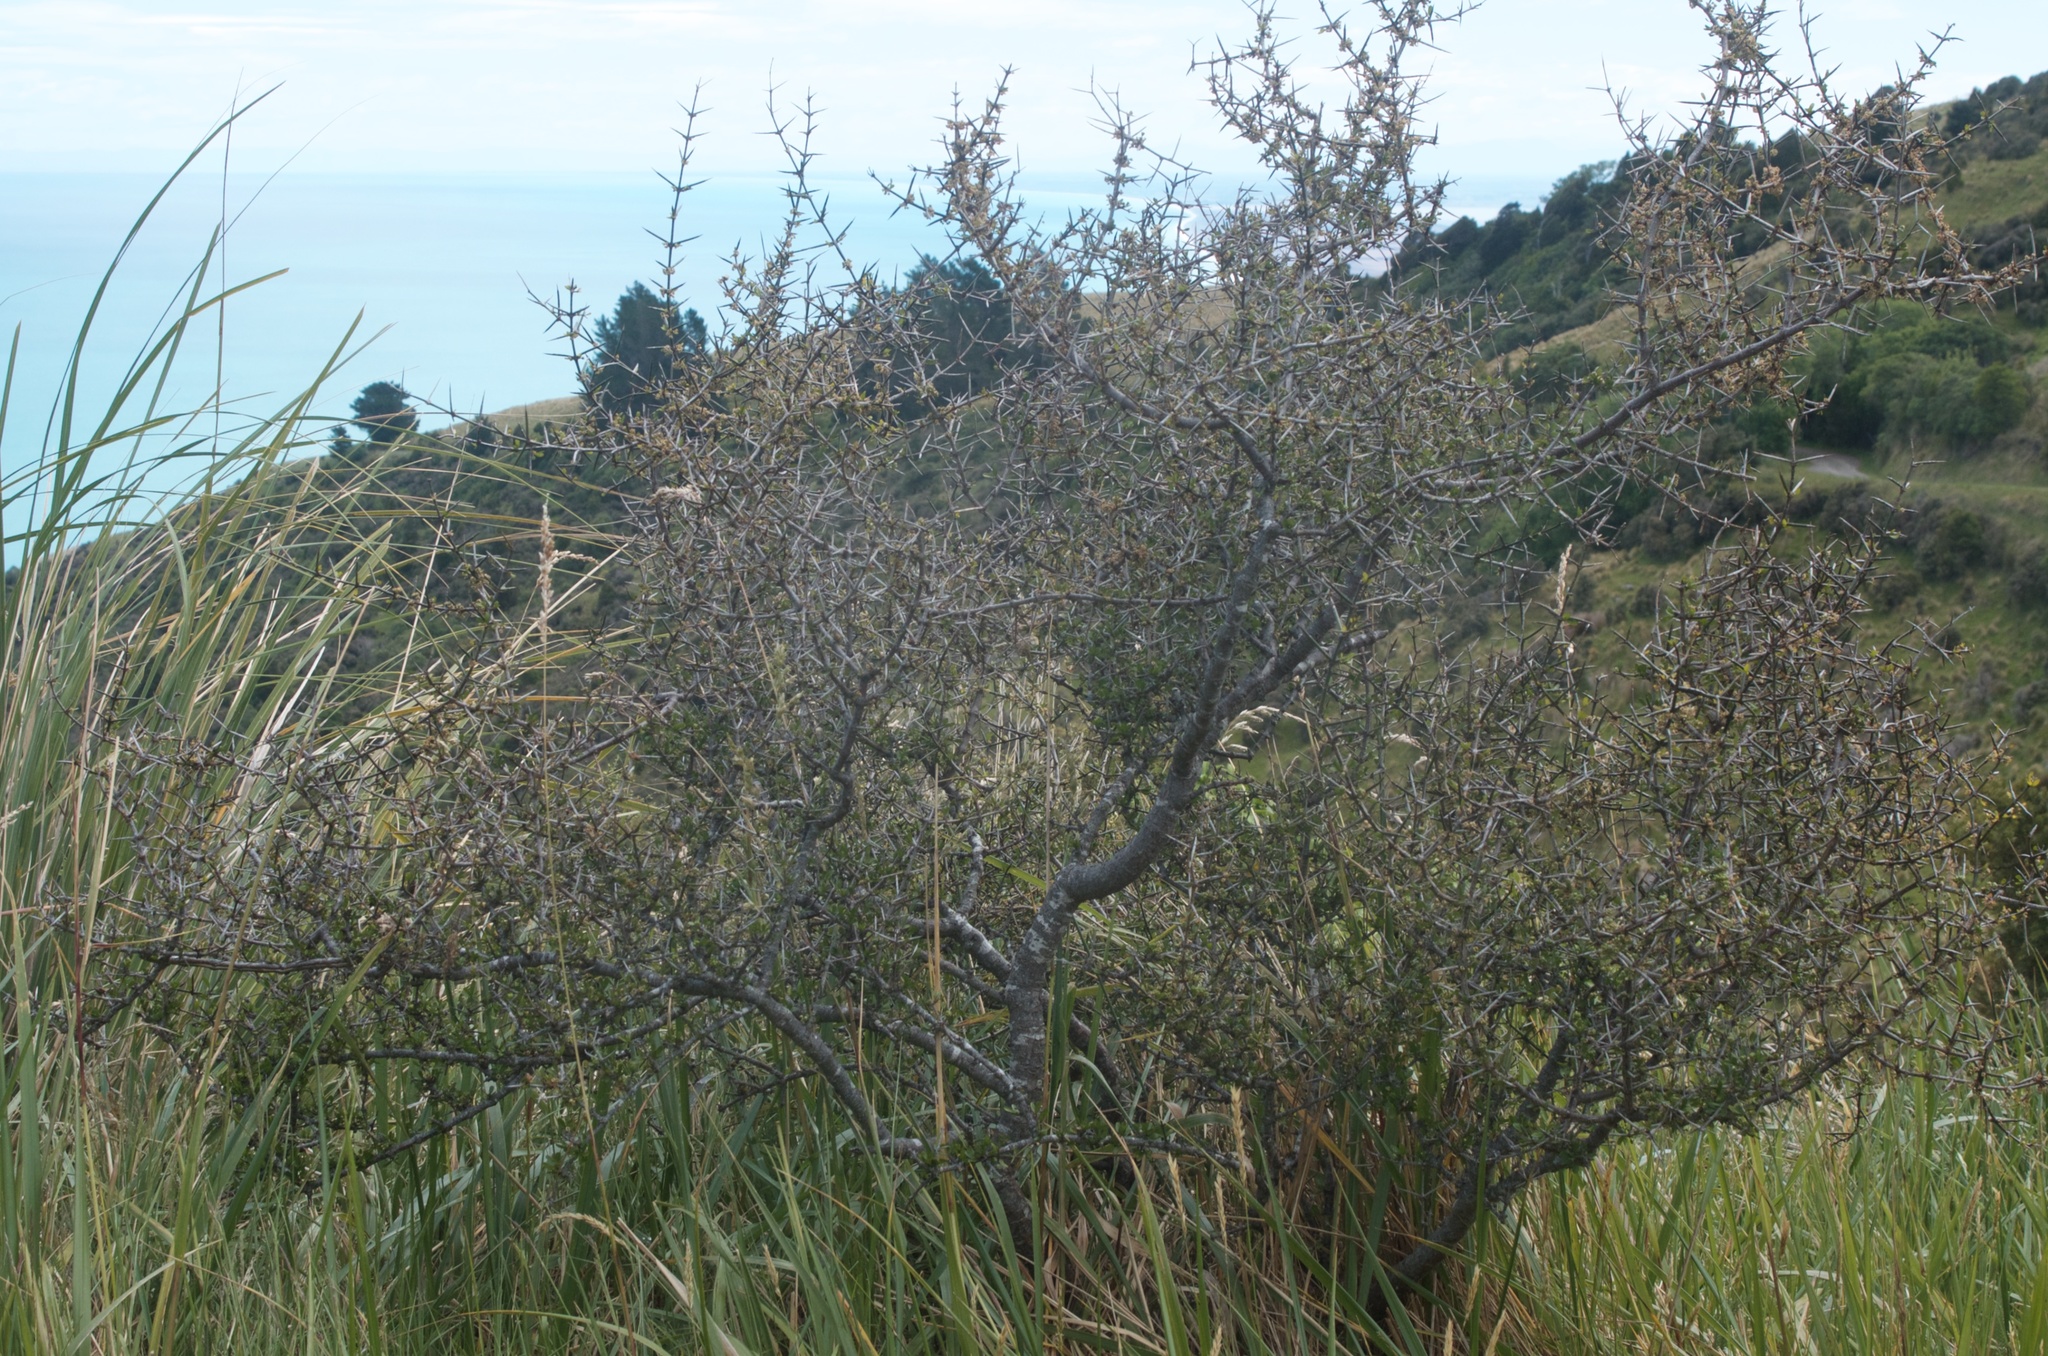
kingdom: Plantae
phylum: Tracheophyta
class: Magnoliopsida
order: Rosales
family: Rhamnaceae
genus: Discaria
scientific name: Discaria toumatou
